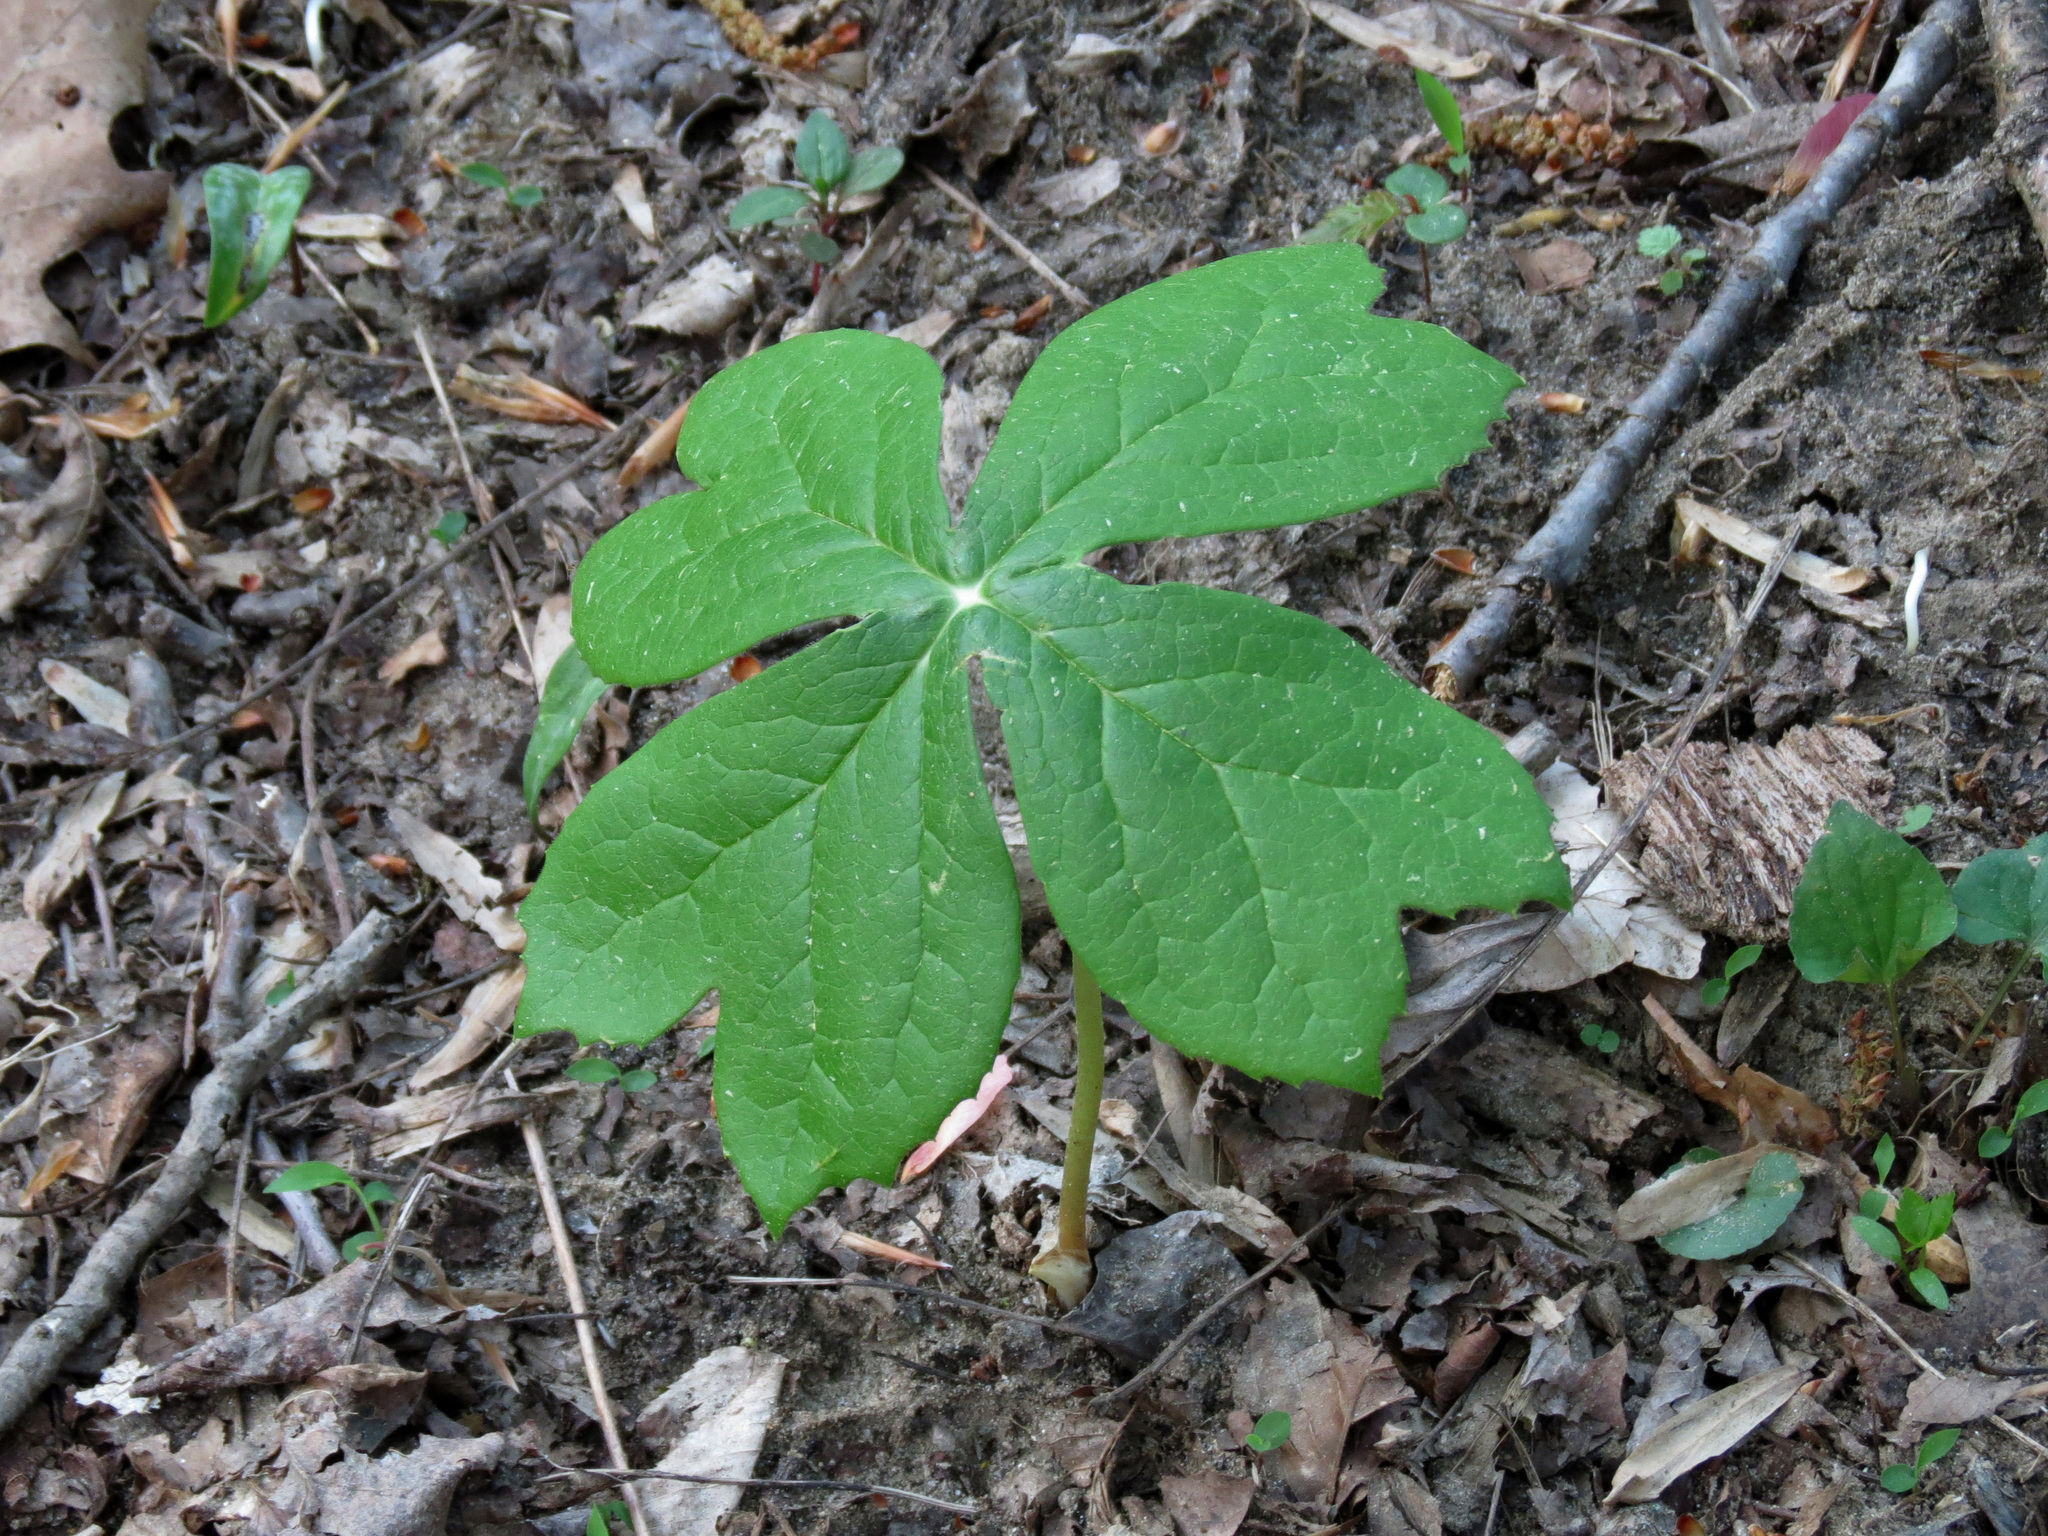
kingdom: Plantae
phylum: Tracheophyta
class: Magnoliopsida
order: Ranunculales
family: Berberidaceae
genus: Podophyllum
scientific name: Podophyllum peltatum
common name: Wild mandrake
